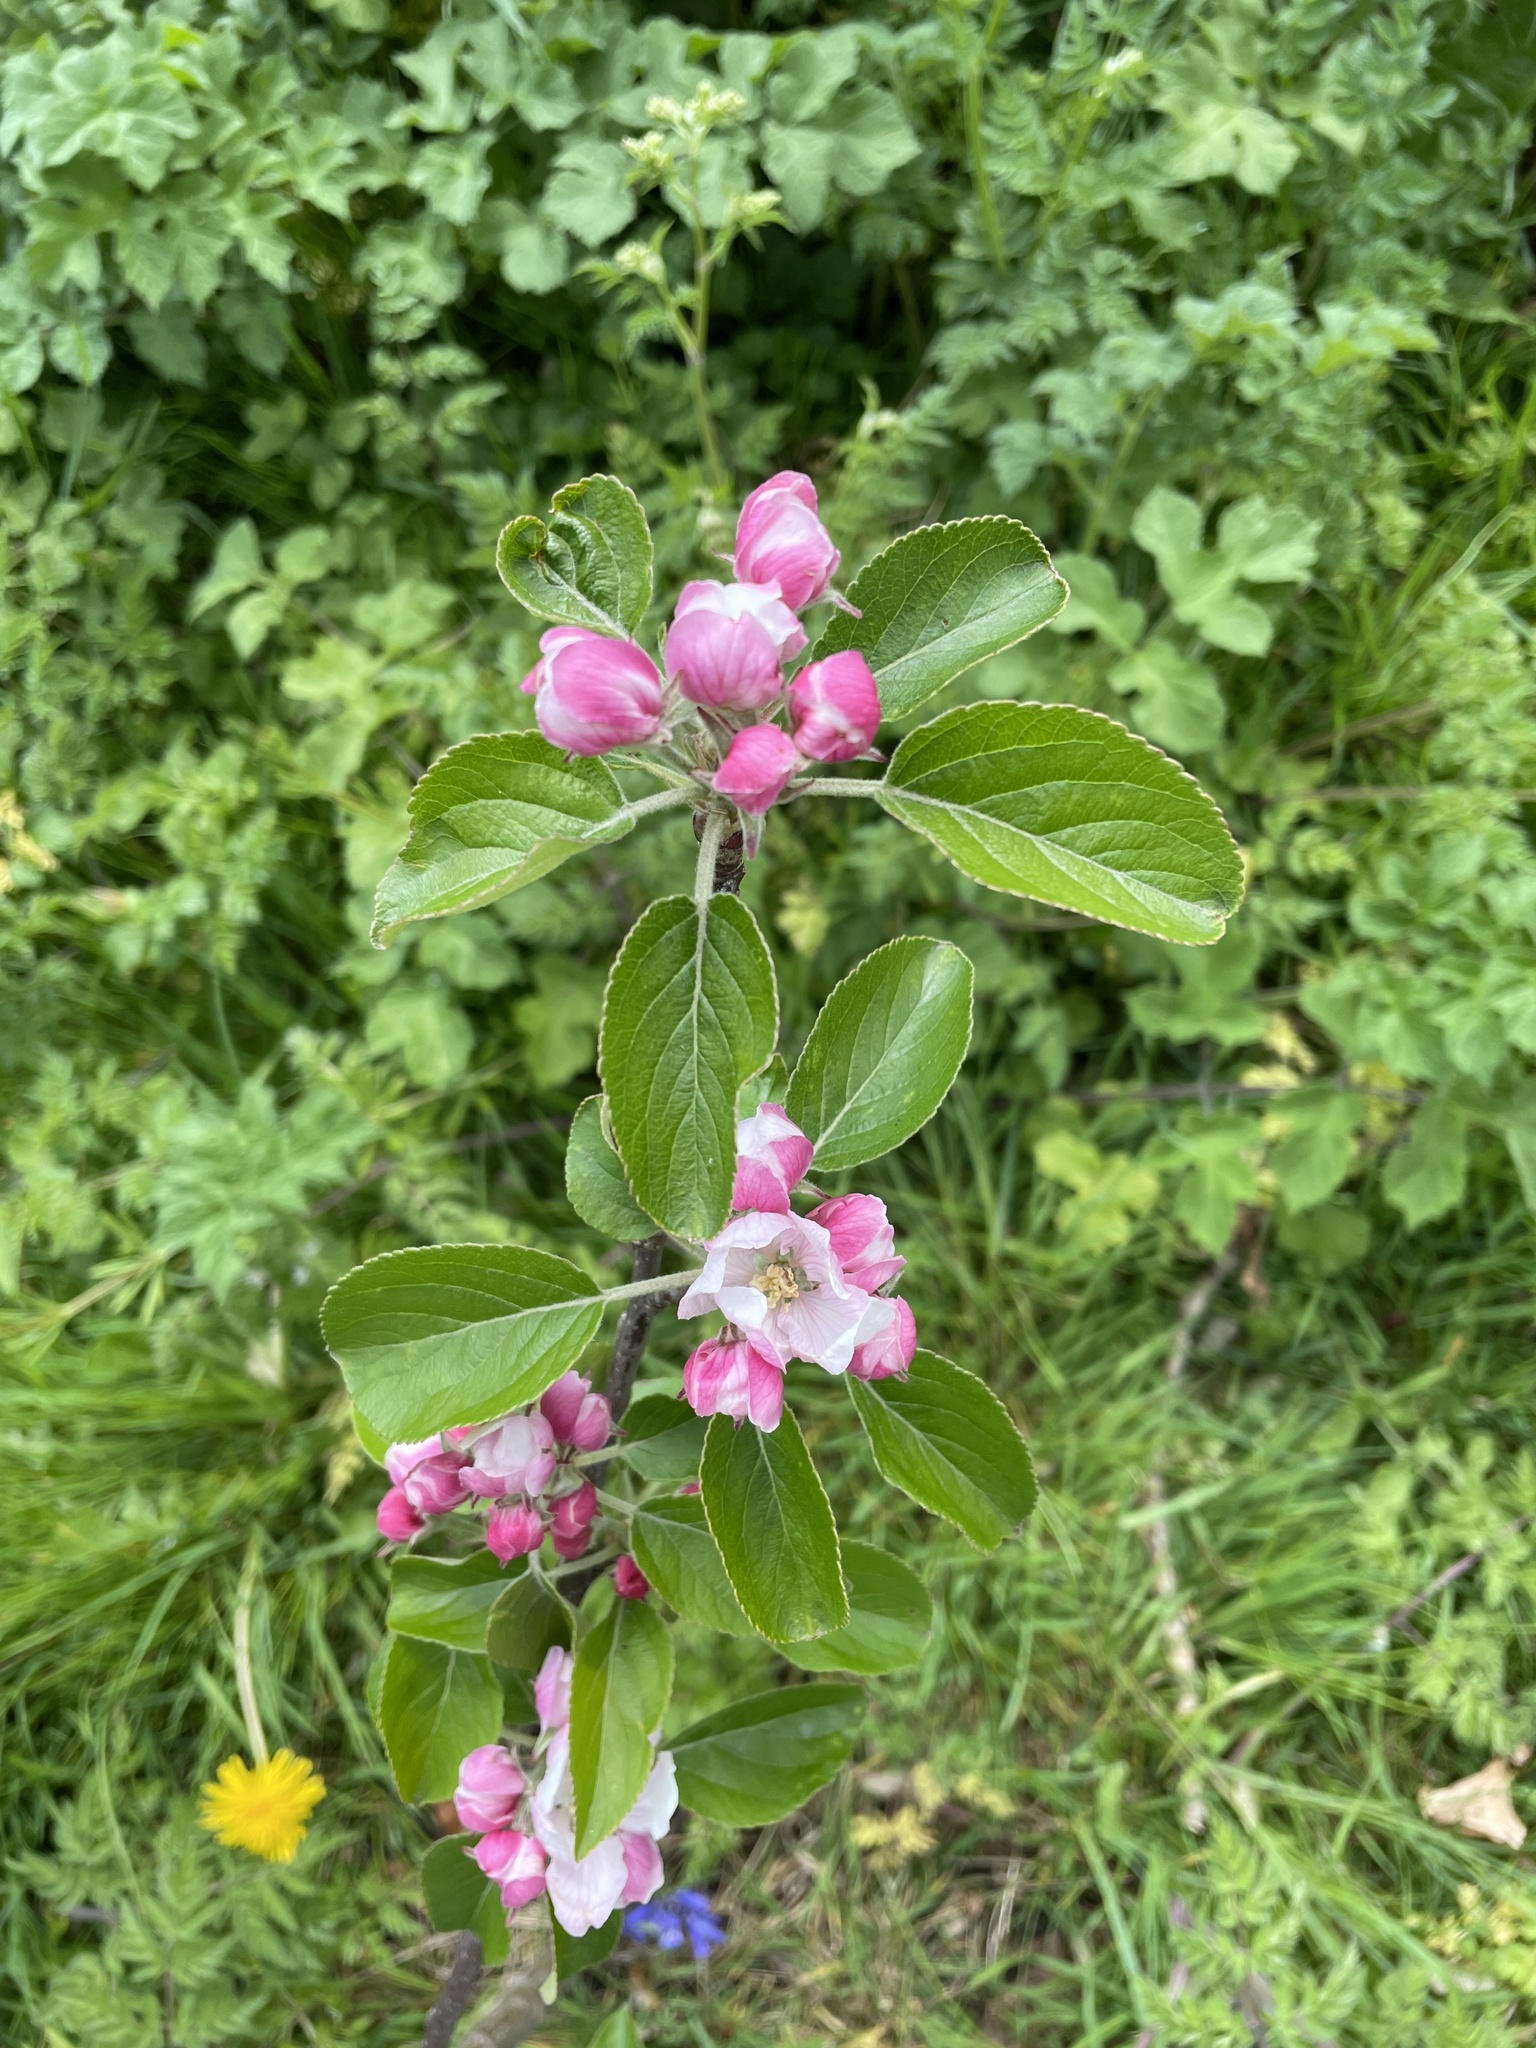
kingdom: Plantae
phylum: Tracheophyta
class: Magnoliopsida
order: Rosales
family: Rosaceae
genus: Malus
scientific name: Malus domestica
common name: Apple
